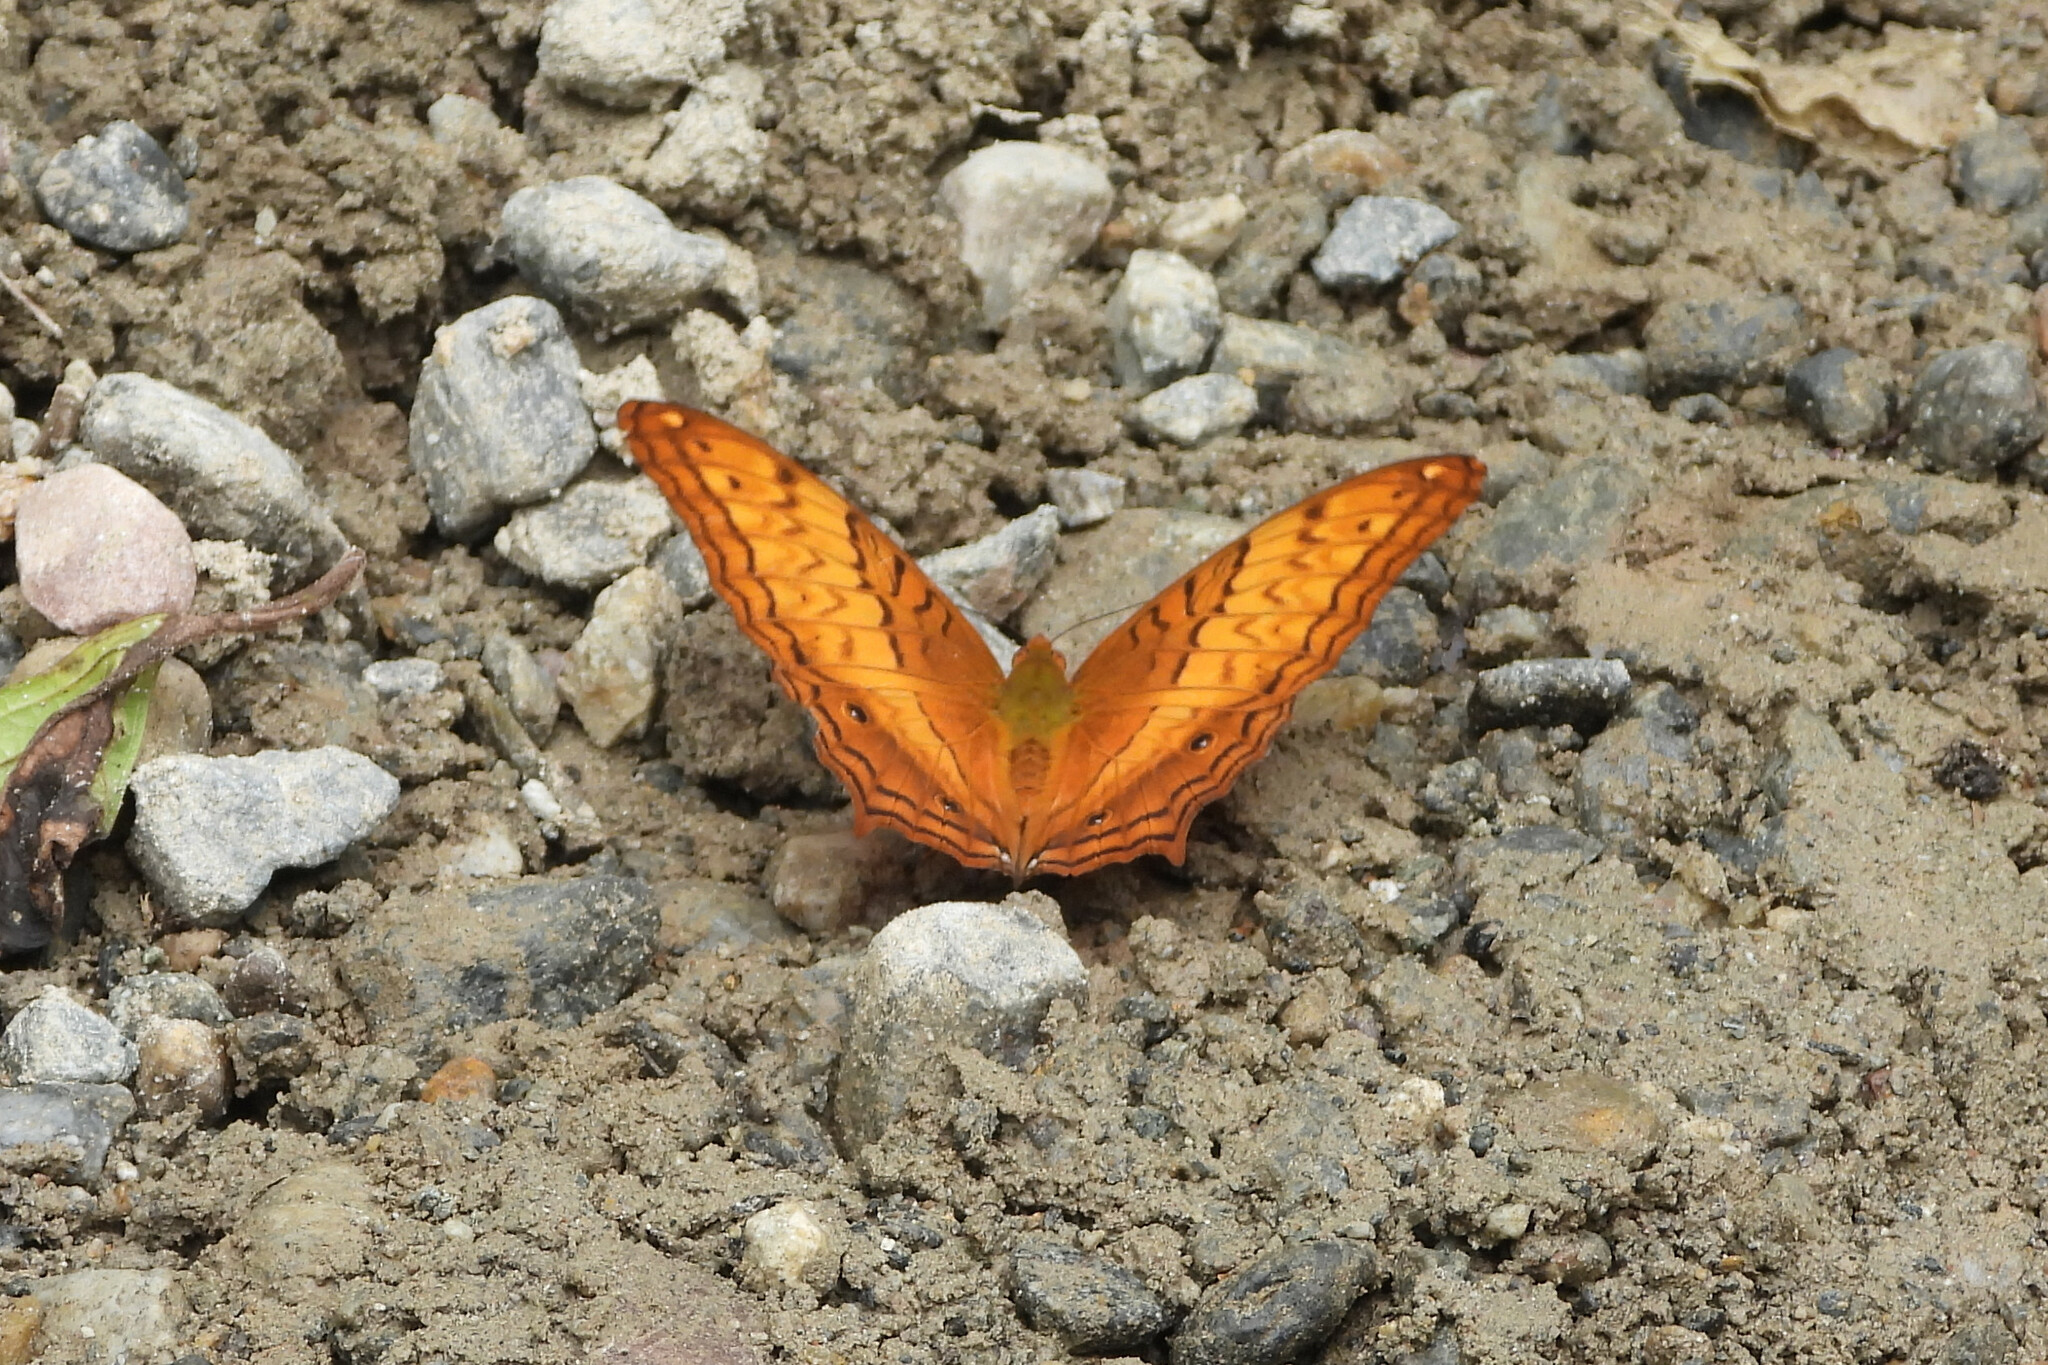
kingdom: Animalia
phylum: Arthropoda
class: Insecta
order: Lepidoptera
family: Nymphalidae
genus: Vindula
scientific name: Vindula erota
